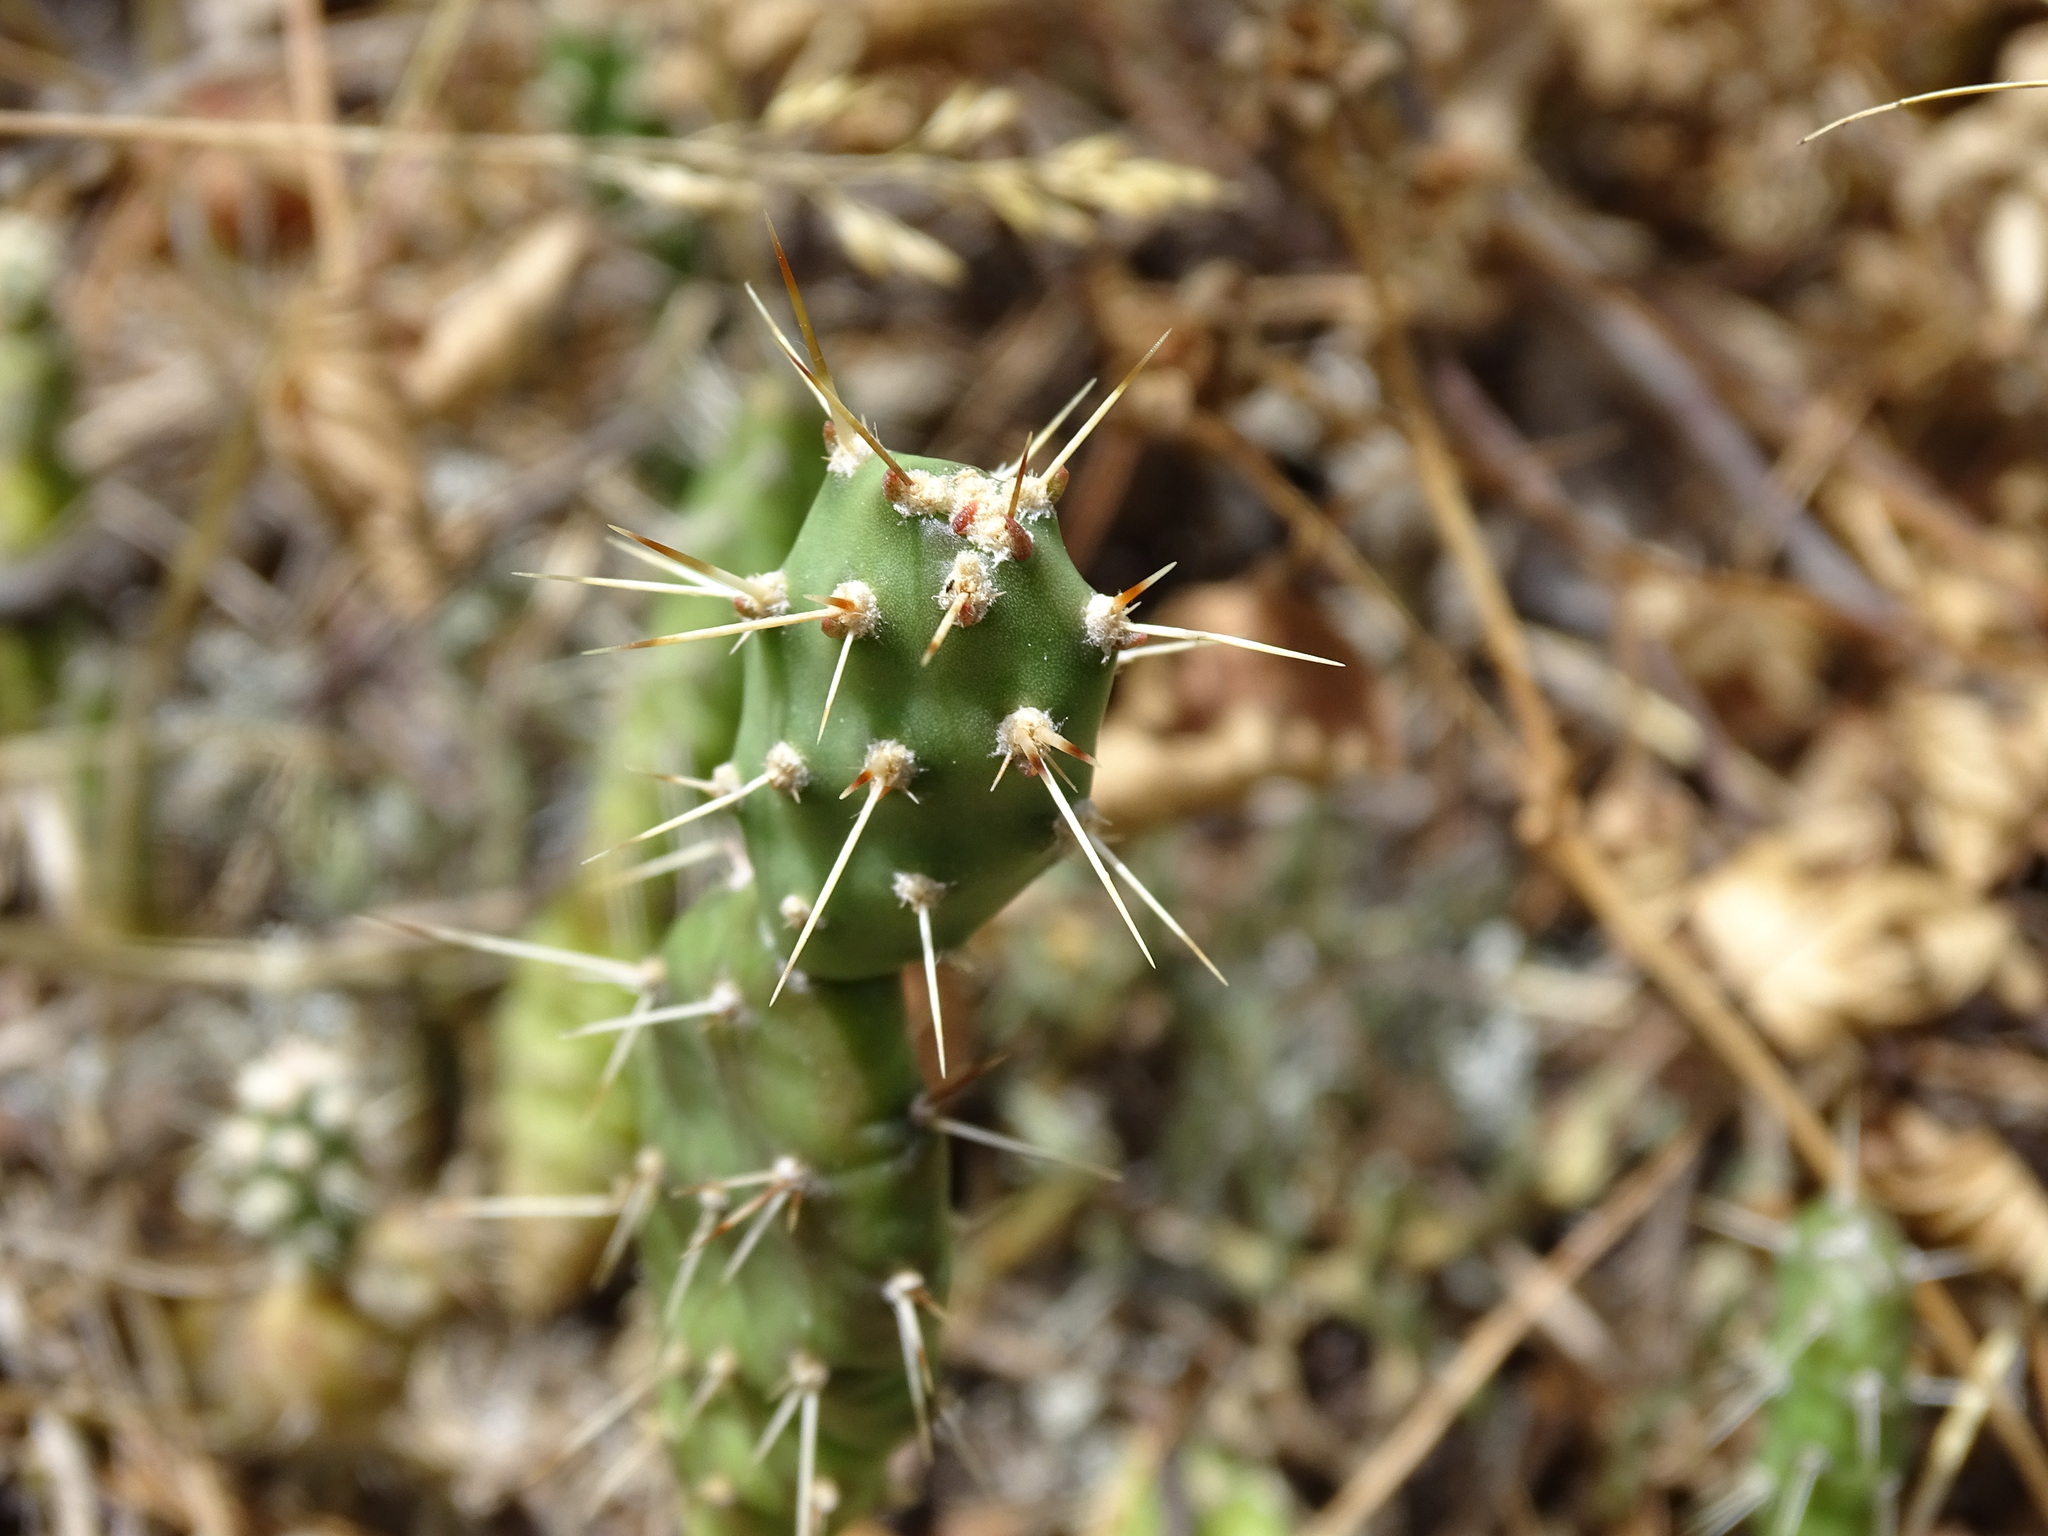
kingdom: Plantae
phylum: Tracheophyta
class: Magnoliopsida
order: Caryophyllales
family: Cactaceae
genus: Opuntia
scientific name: Opuntia fragilis
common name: Brittle cactus
